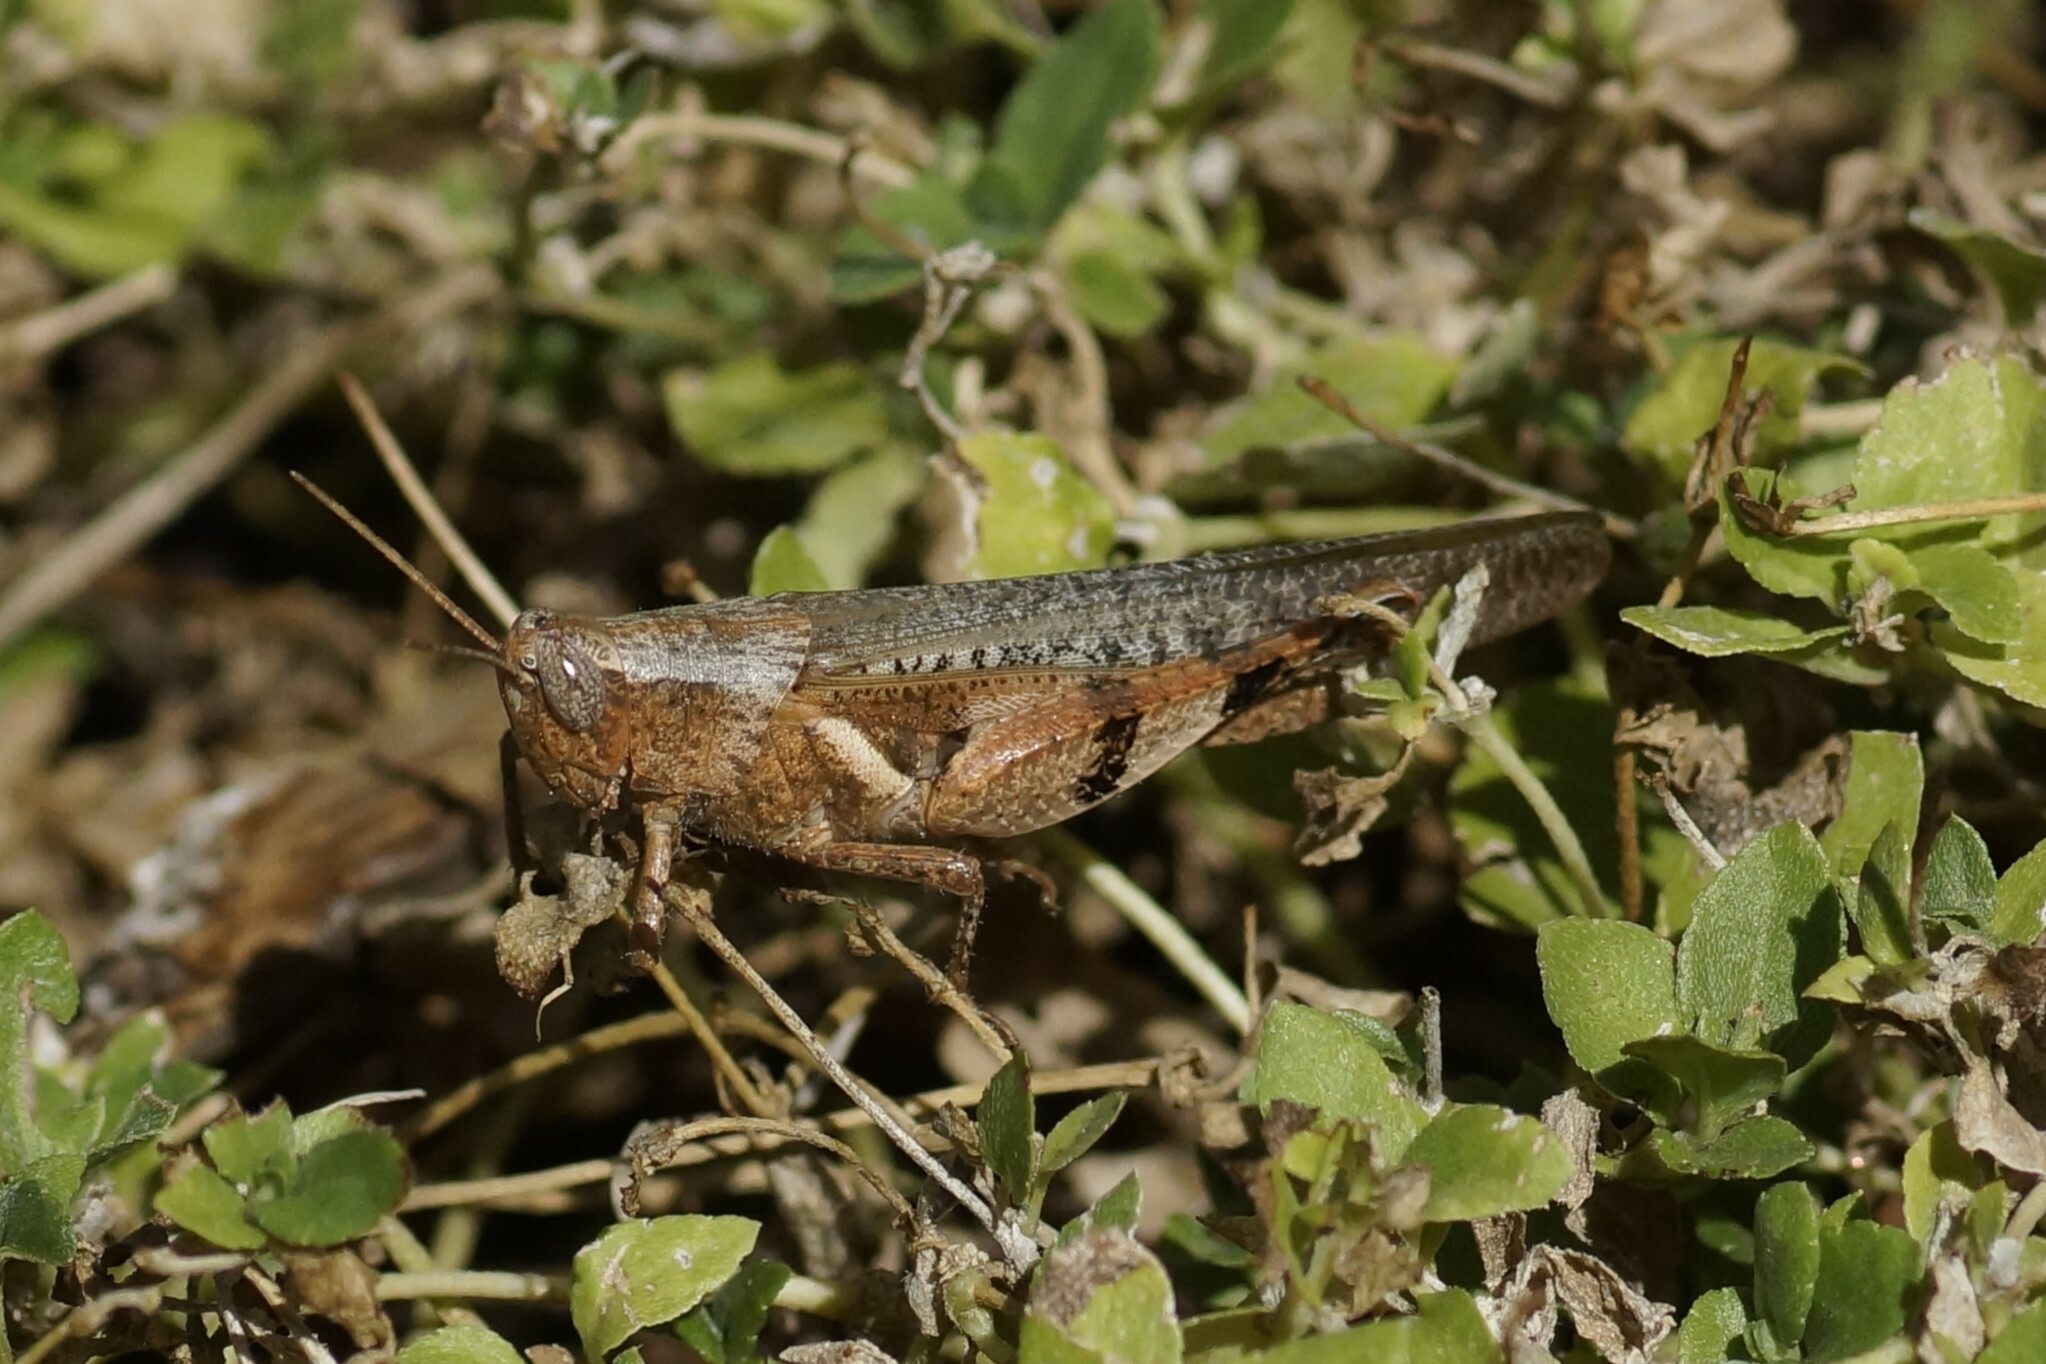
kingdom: Animalia
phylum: Arthropoda
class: Insecta
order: Orthoptera
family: Acrididae
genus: Stenocatantops
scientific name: Stenocatantops angustifrons
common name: Common tropical sharptail
